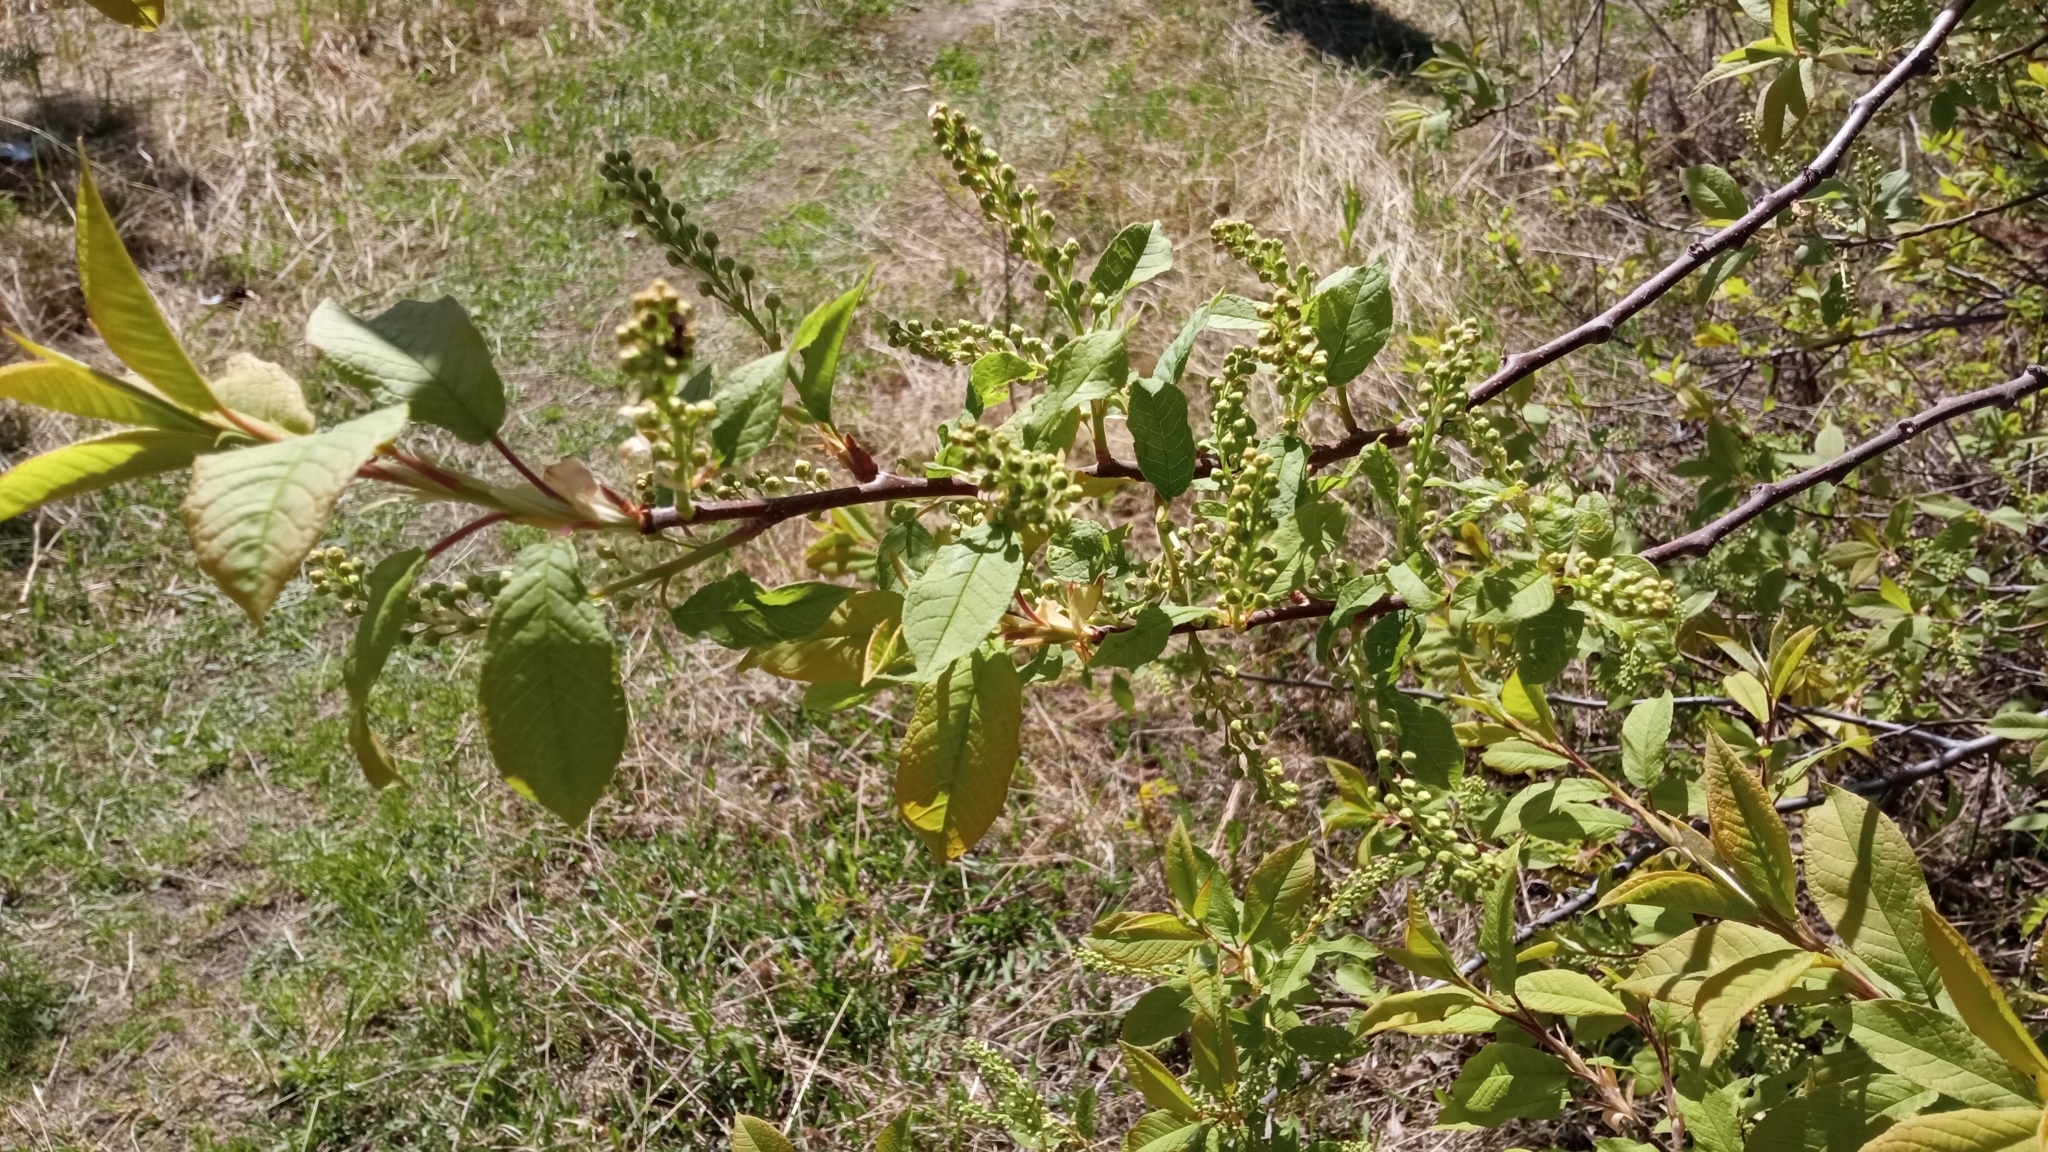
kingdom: Plantae
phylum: Tracheophyta
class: Magnoliopsida
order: Rosales
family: Rosaceae
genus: Prunus
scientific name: Prunus padus
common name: Bird cherry
